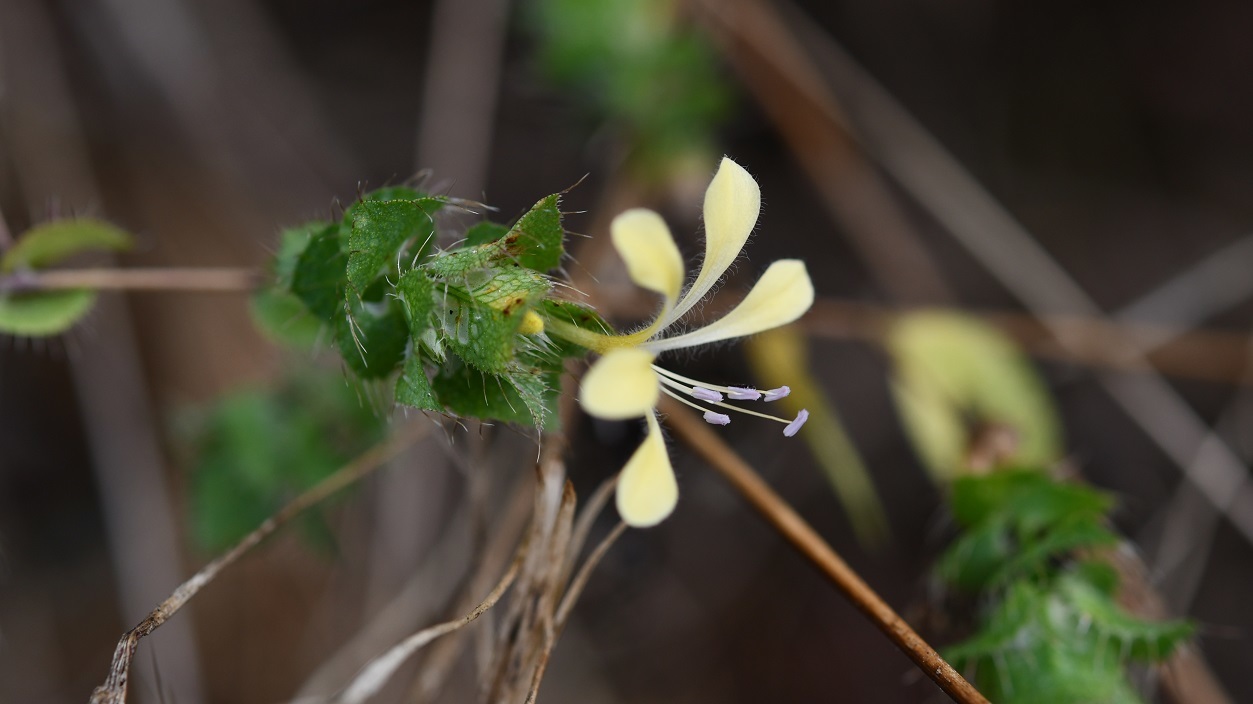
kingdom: Plantae
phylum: Tracheophyta
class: Magnoliopsida
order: Ericales
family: Polemoniaceae
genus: Loeselia
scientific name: Loeselia ciliata
